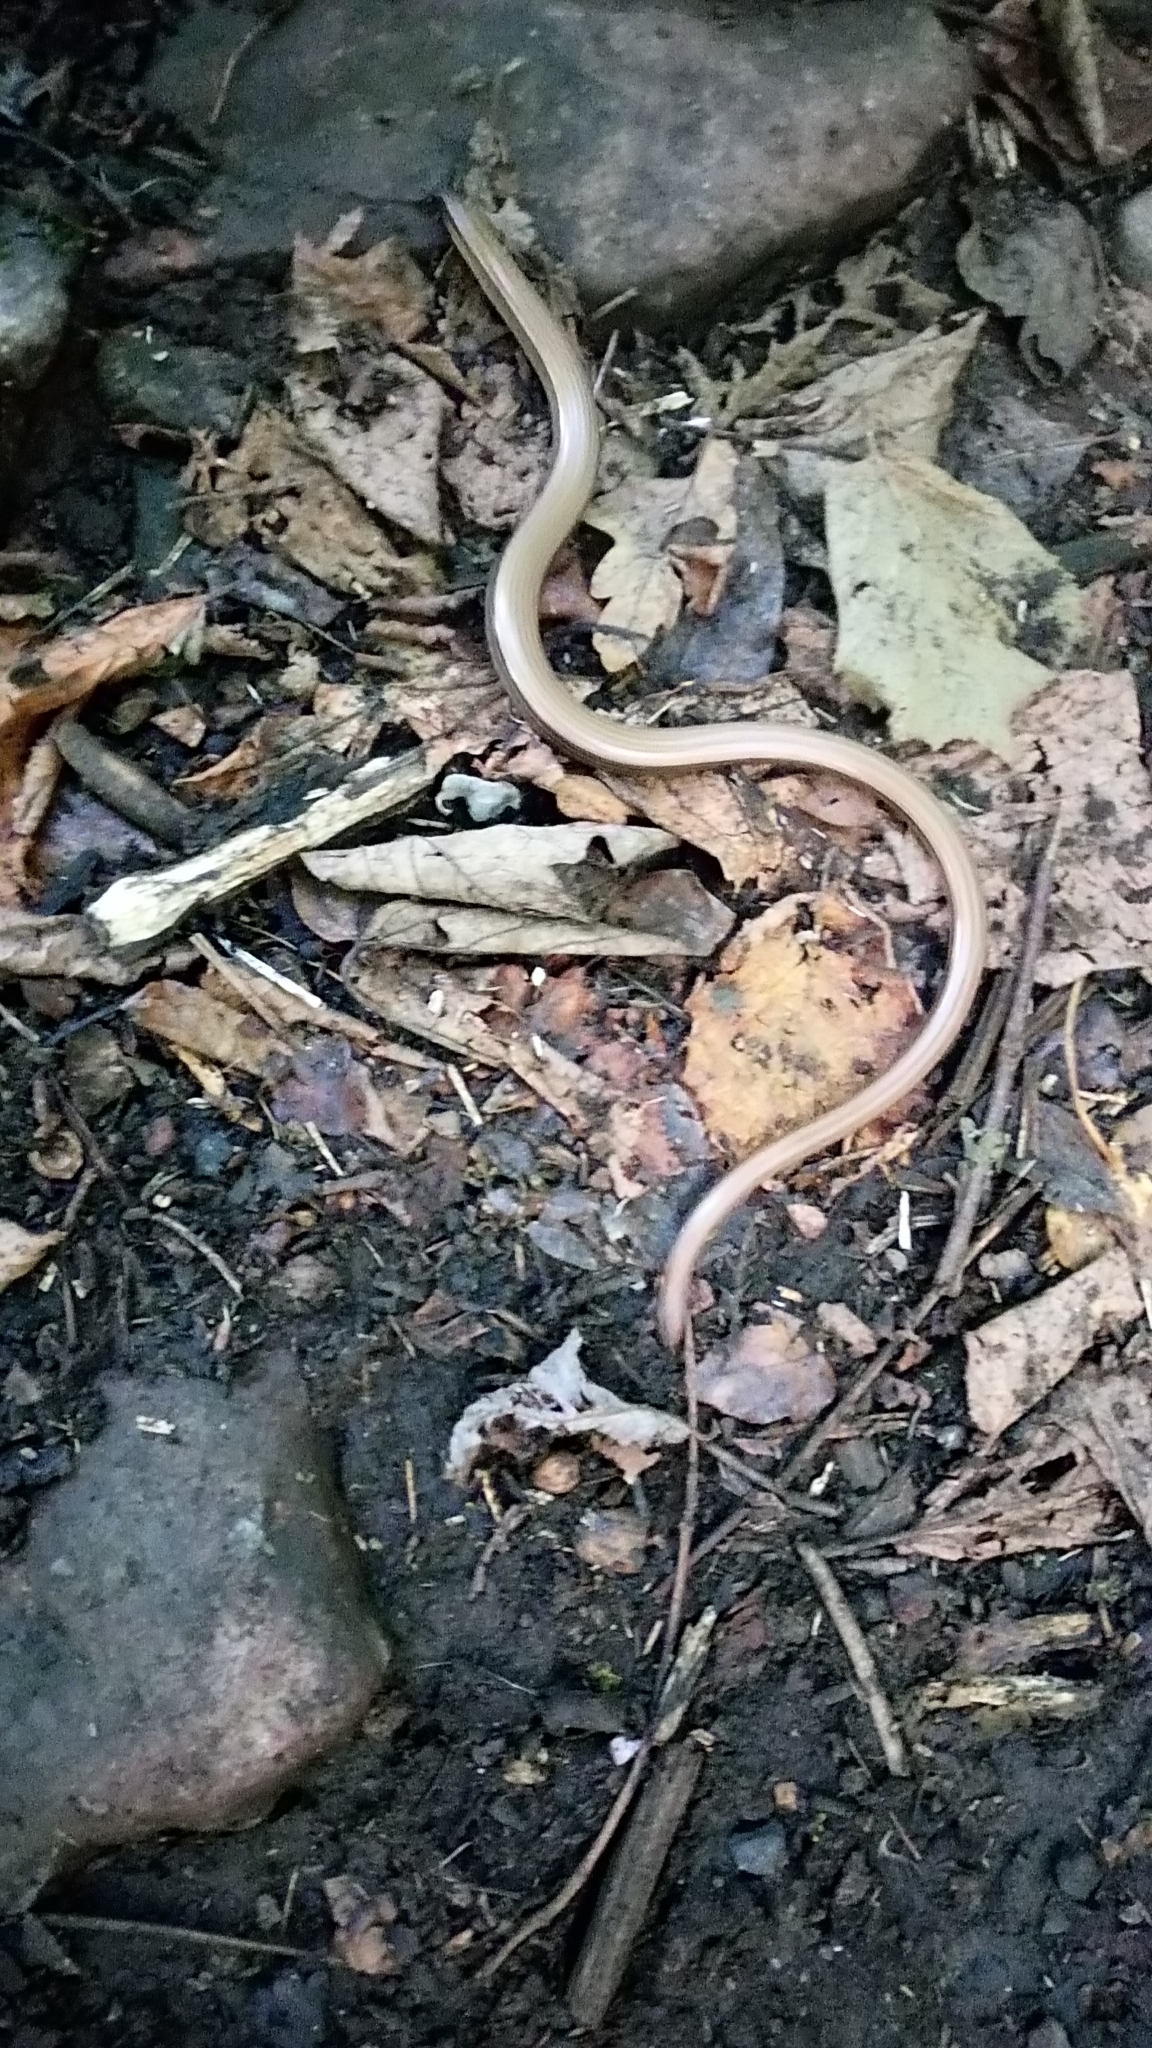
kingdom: Animalia
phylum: Chordata
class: Squamata
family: Anguidae
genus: Anguis
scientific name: Anguis fragilis
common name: Slow worm
